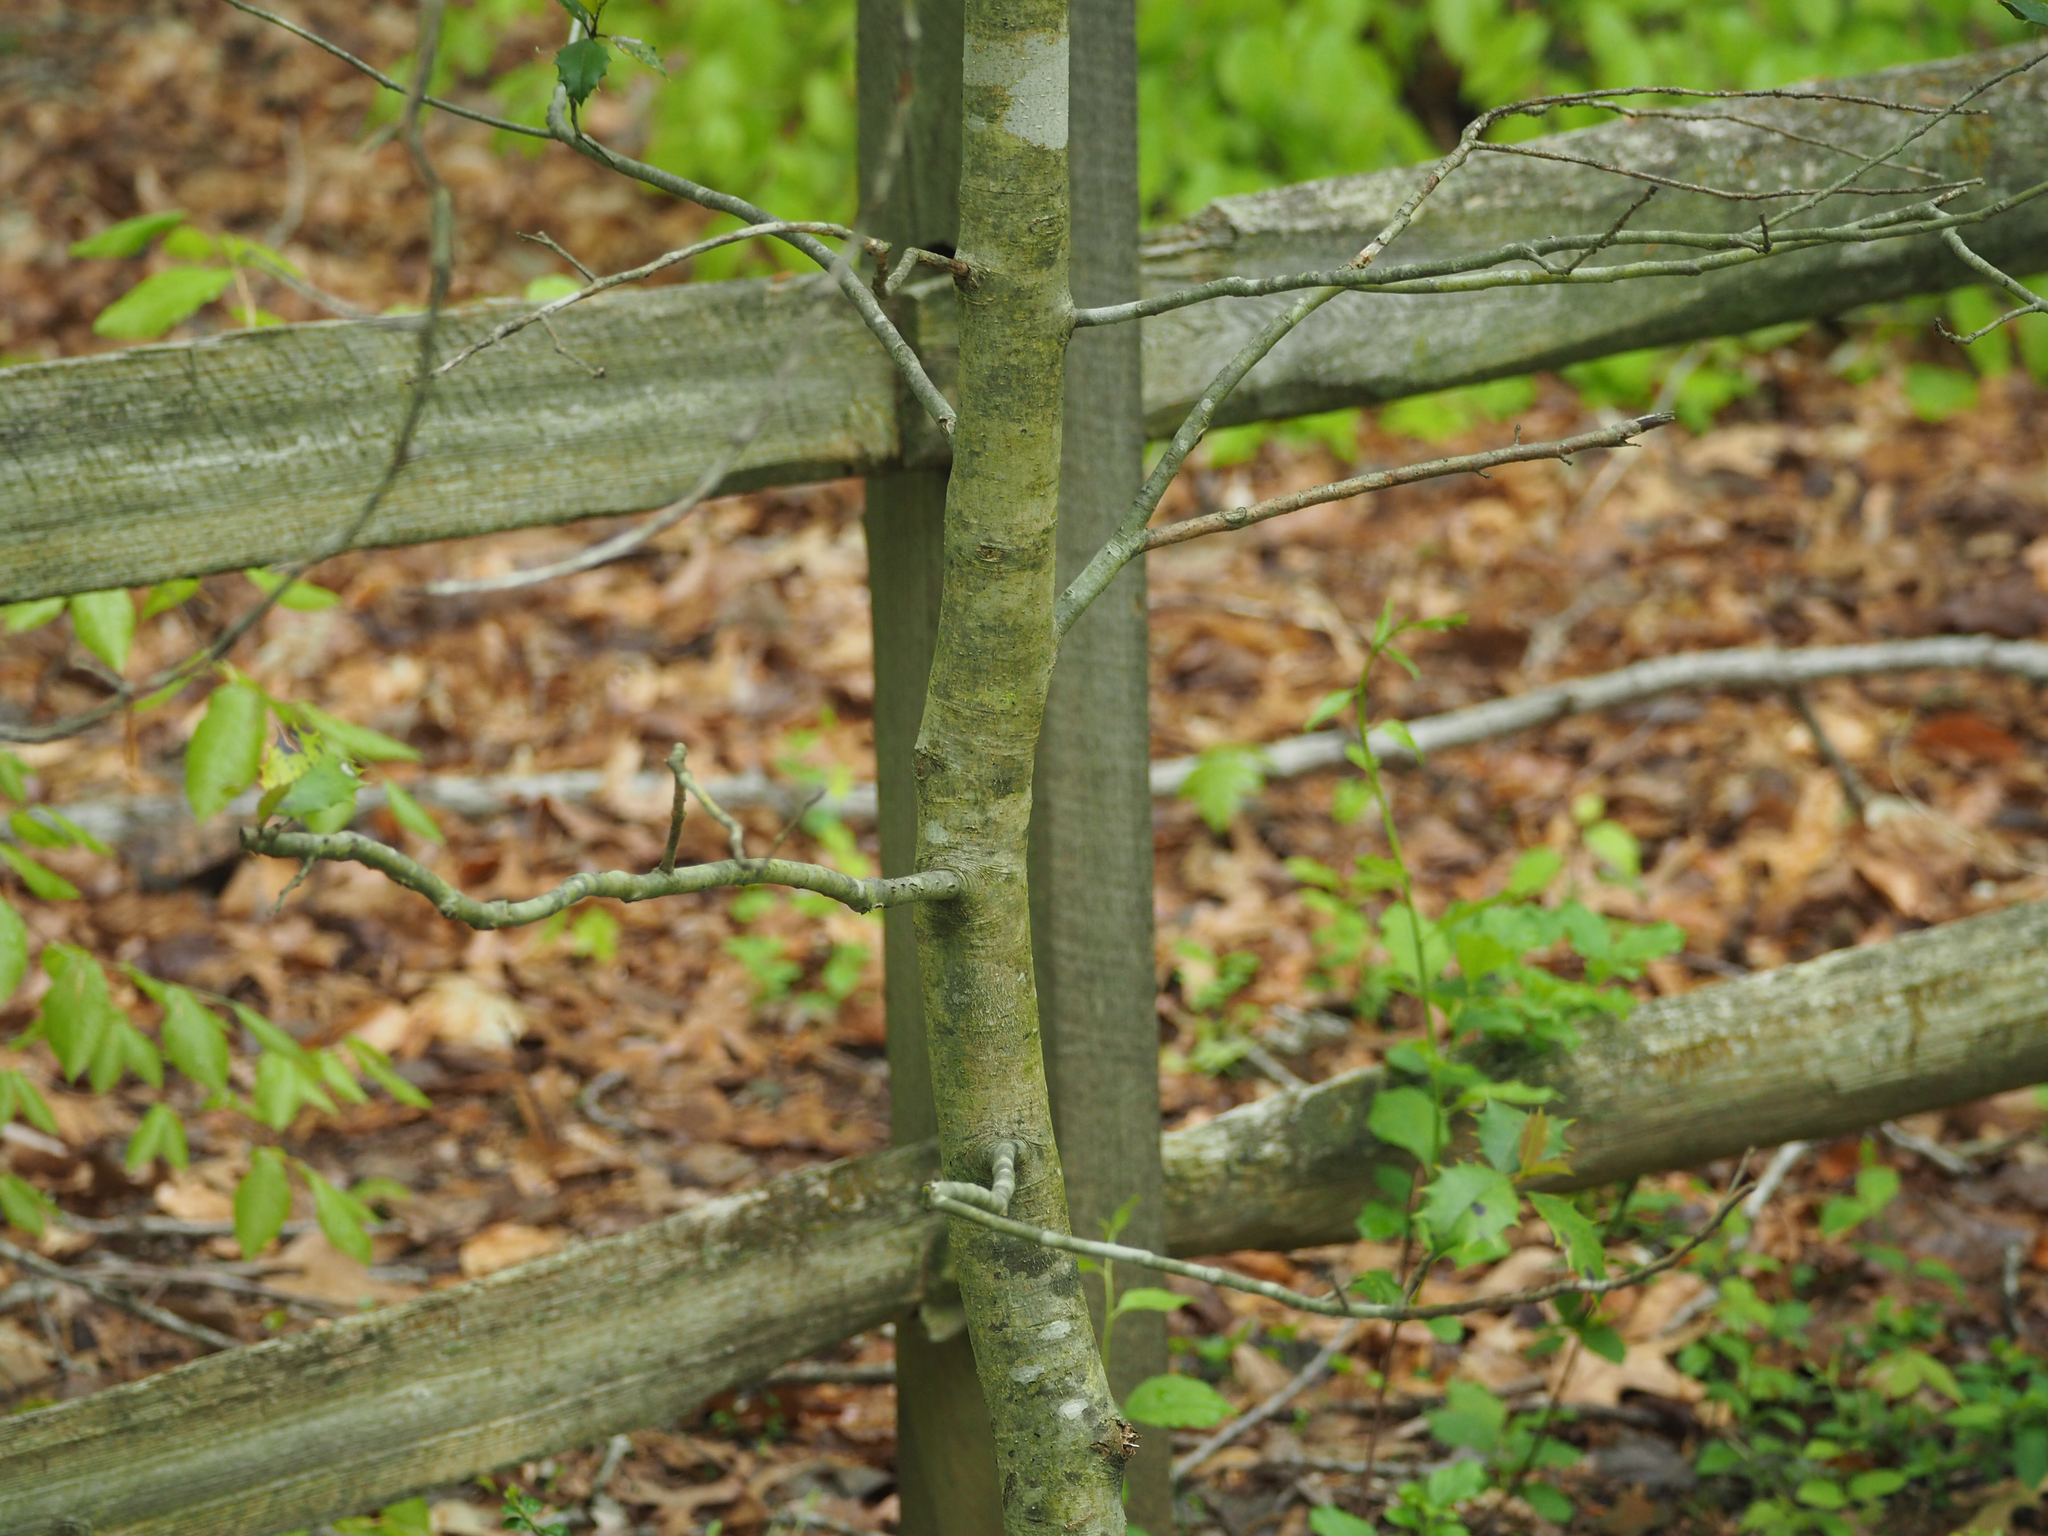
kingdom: Plantae
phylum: Tracheophyta
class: Magnoliopsida
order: Aquifoliales
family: Aquifoliaceae
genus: Ilex
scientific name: Ilex opaca
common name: American holly
